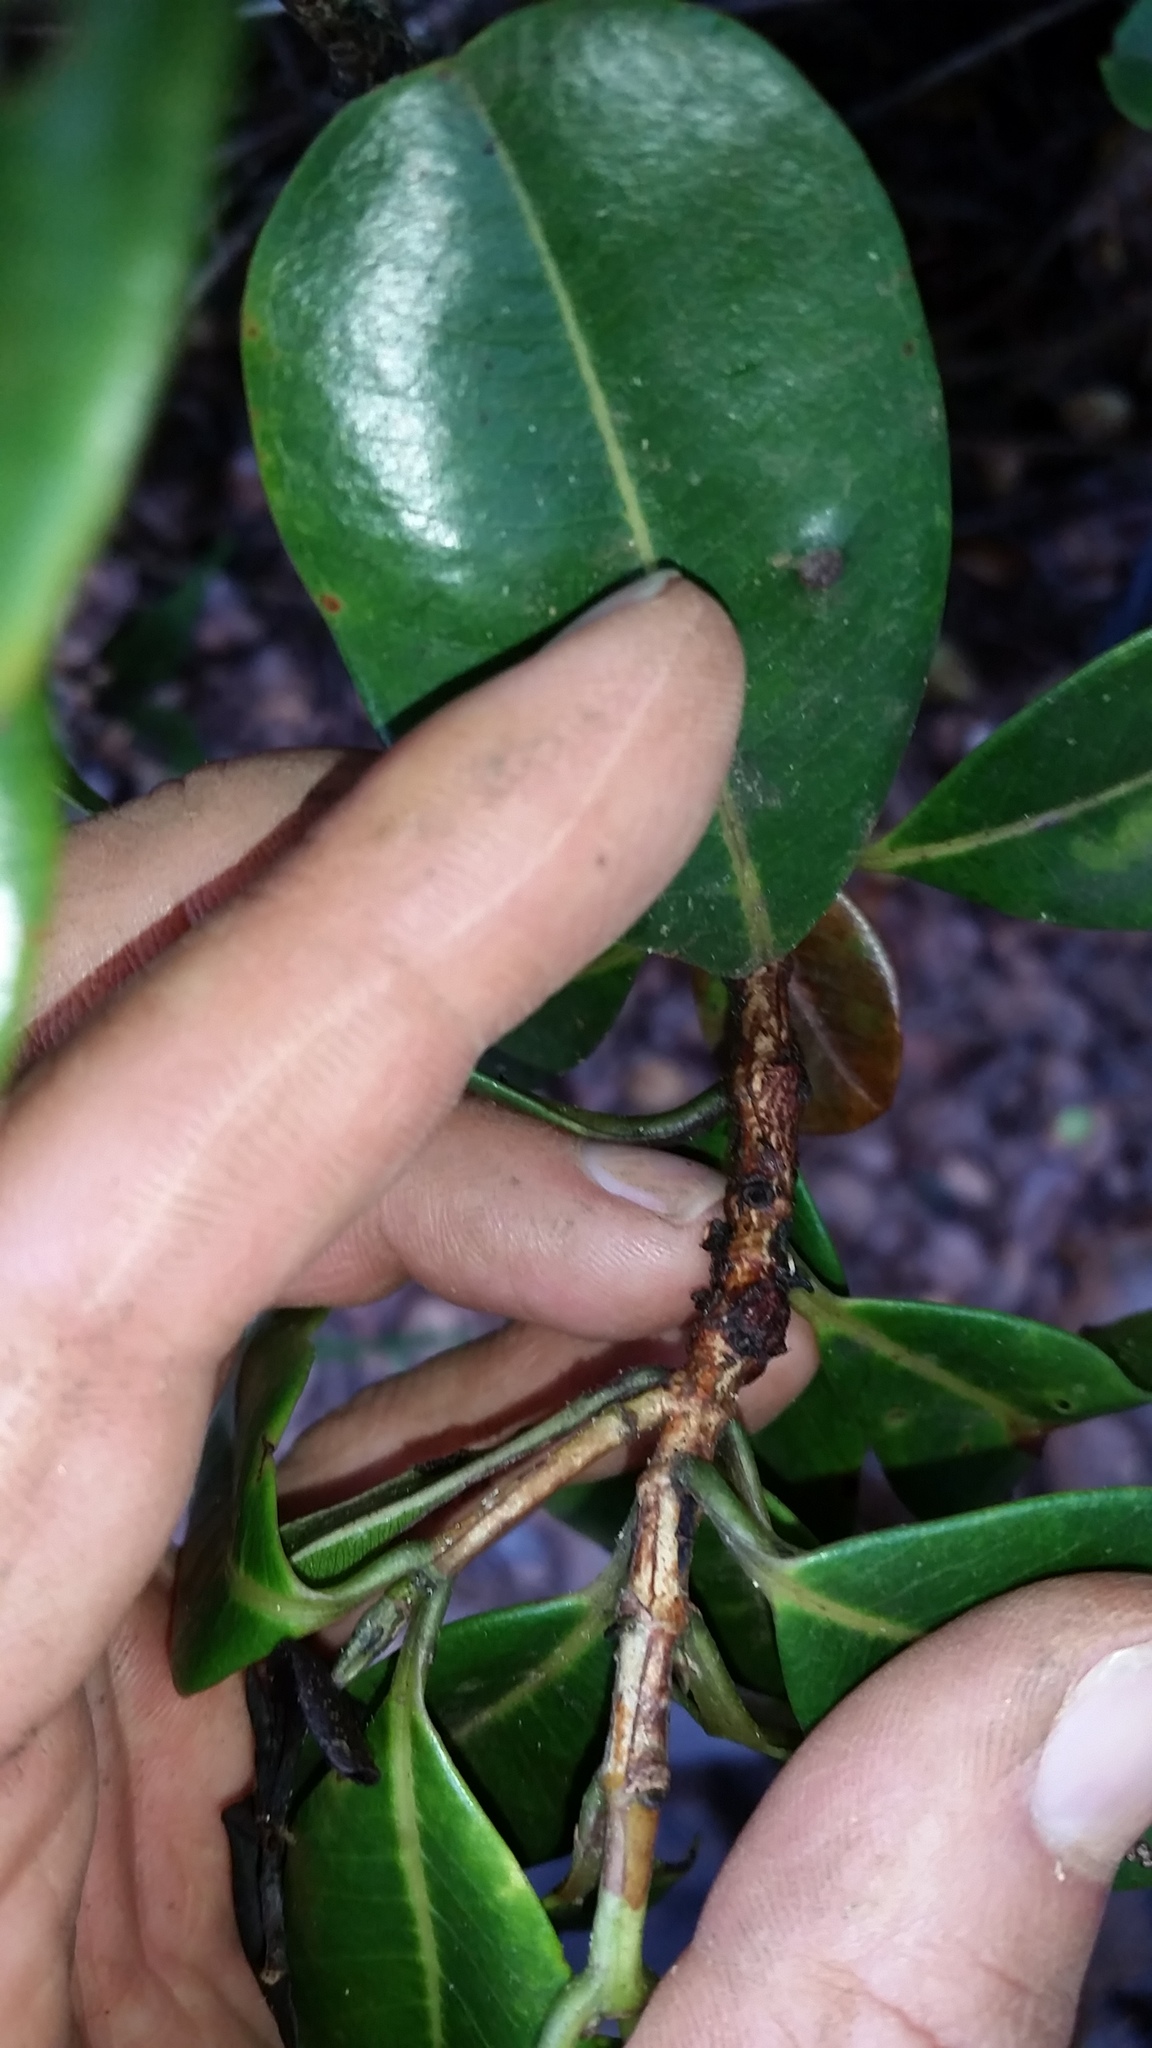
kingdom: Plantae
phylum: Tracheophyta
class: Magnoliopsida
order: Myrtales
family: Myrtaceae
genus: Syzygium
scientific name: Syzygium sandwicense
